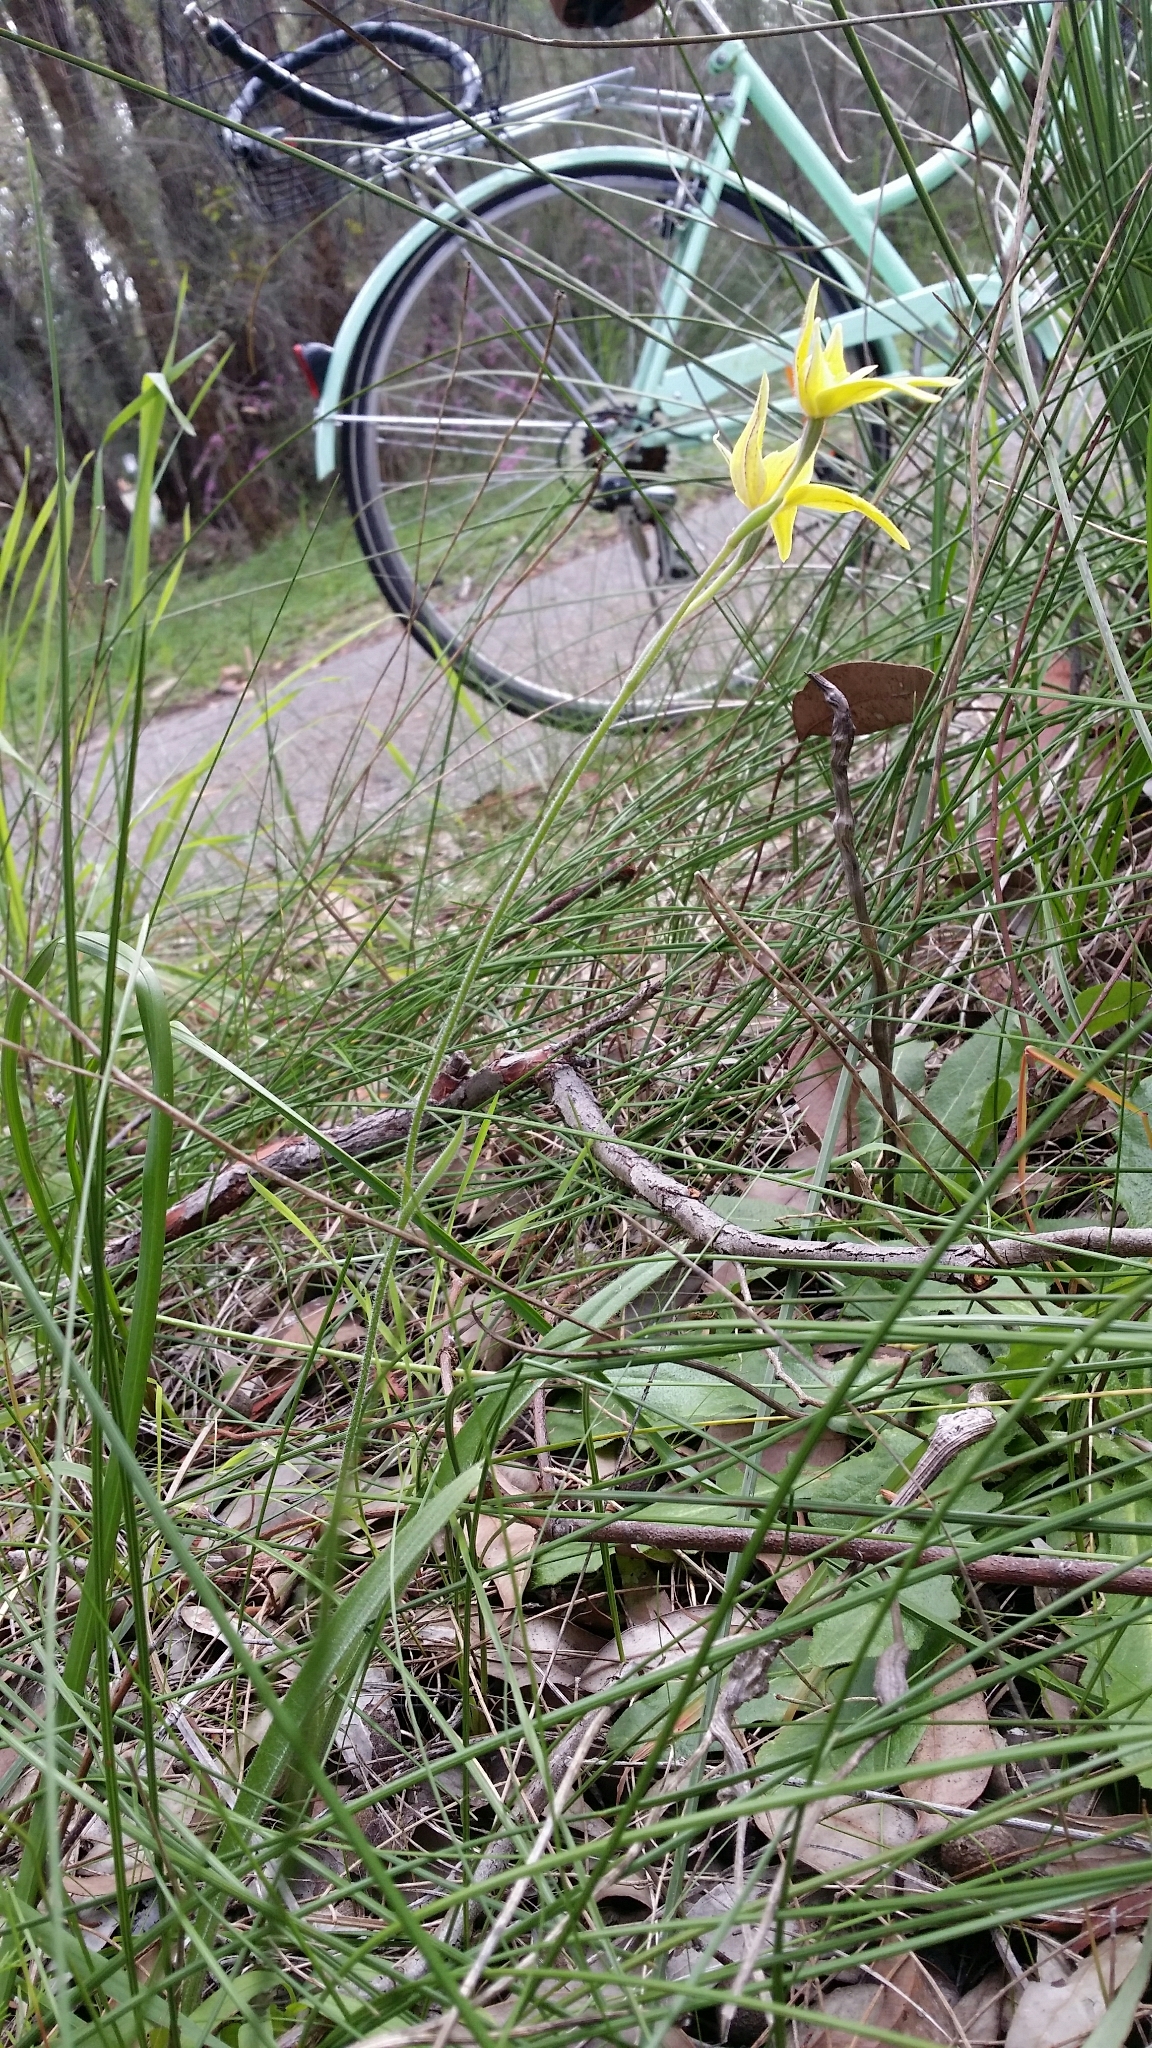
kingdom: Plantae
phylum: Tracheophyta
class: Liliopsida
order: Asparagales
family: Orchidaceae
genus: Caladenia
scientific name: Caladenia flava
